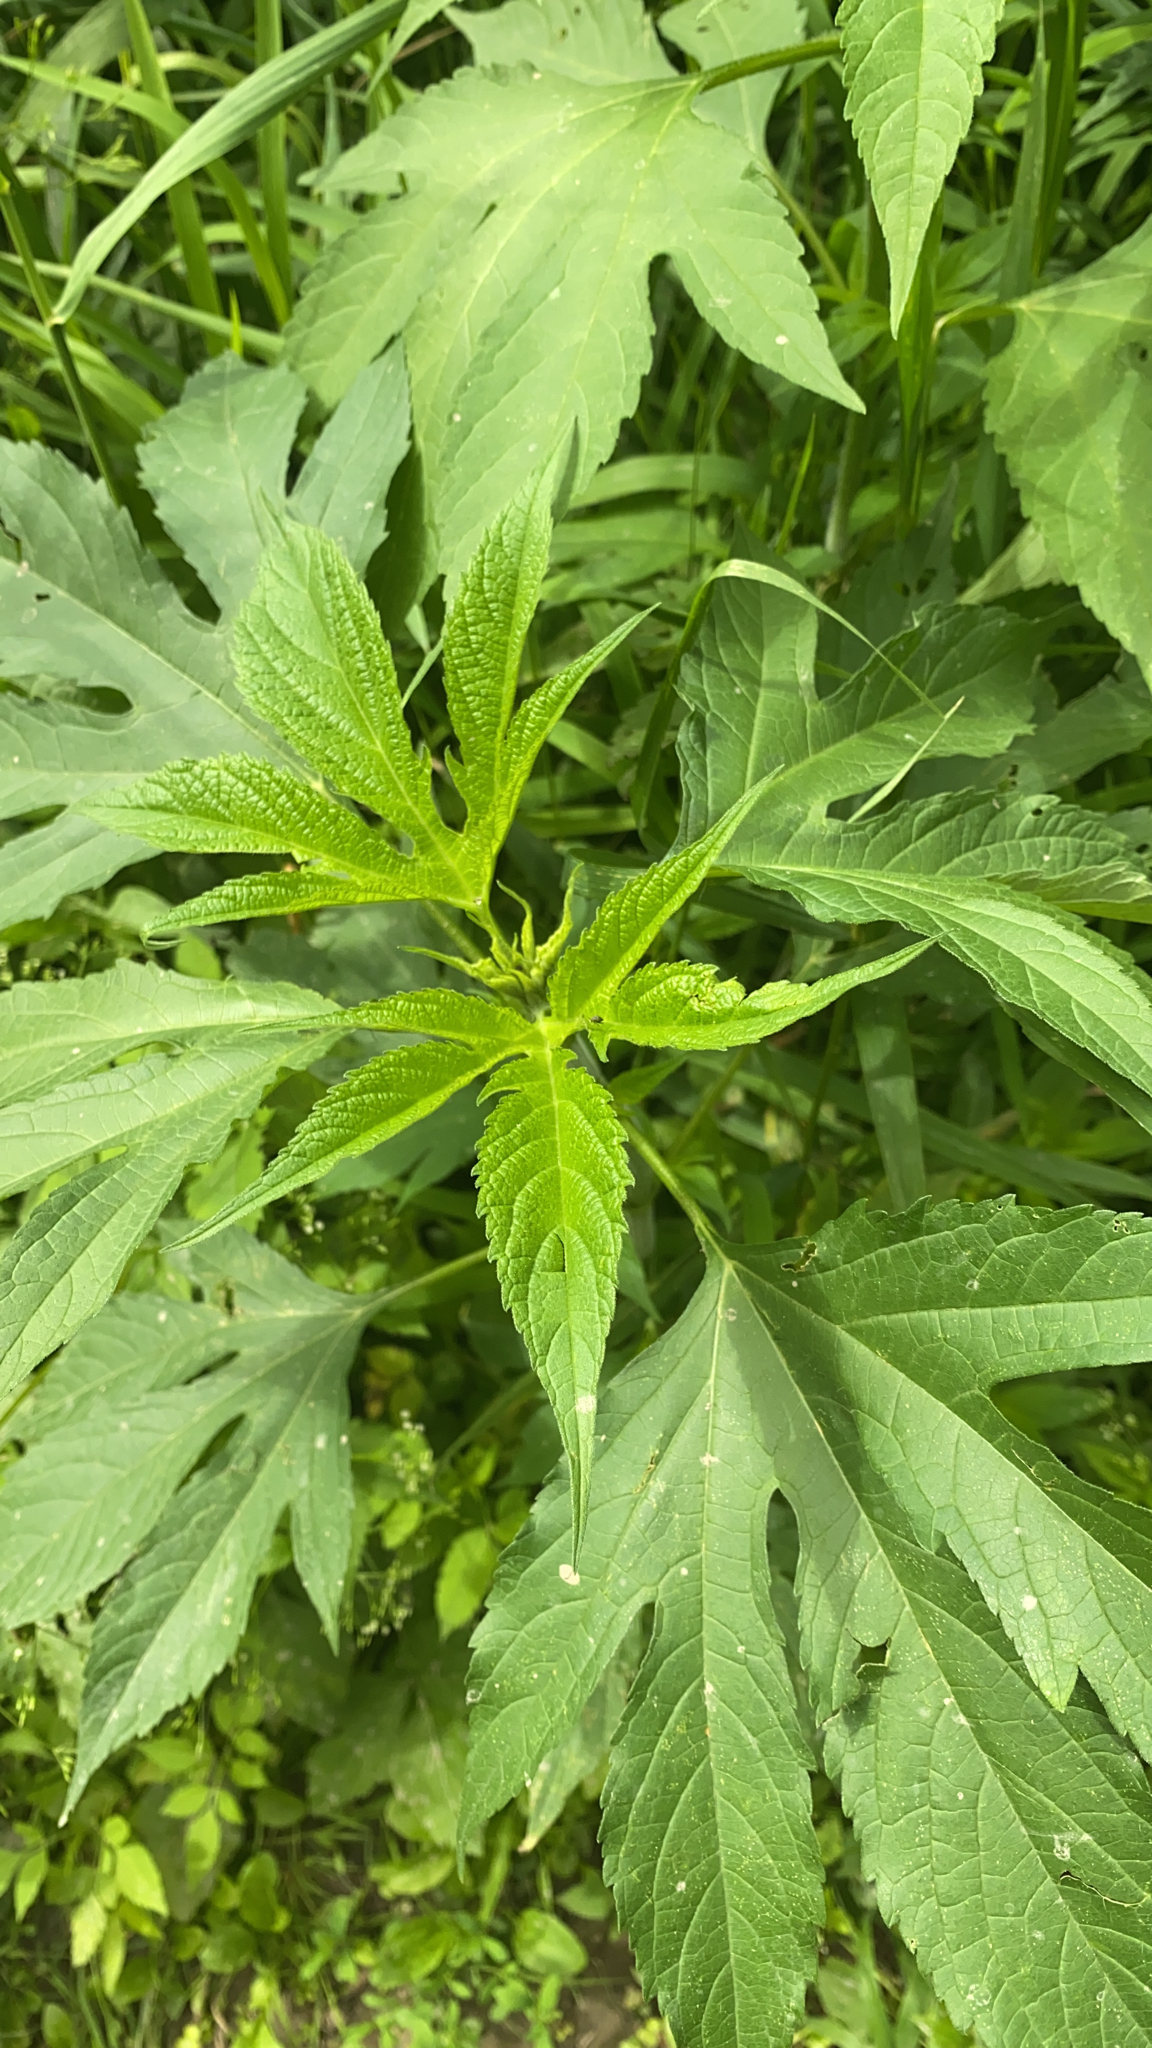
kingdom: Plantae
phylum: Tracheophyta
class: Magnoliopsida
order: Asterales
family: Asteraceae
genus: Ambrosia
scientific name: Ambrosia trifida
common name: Giant ragweed
